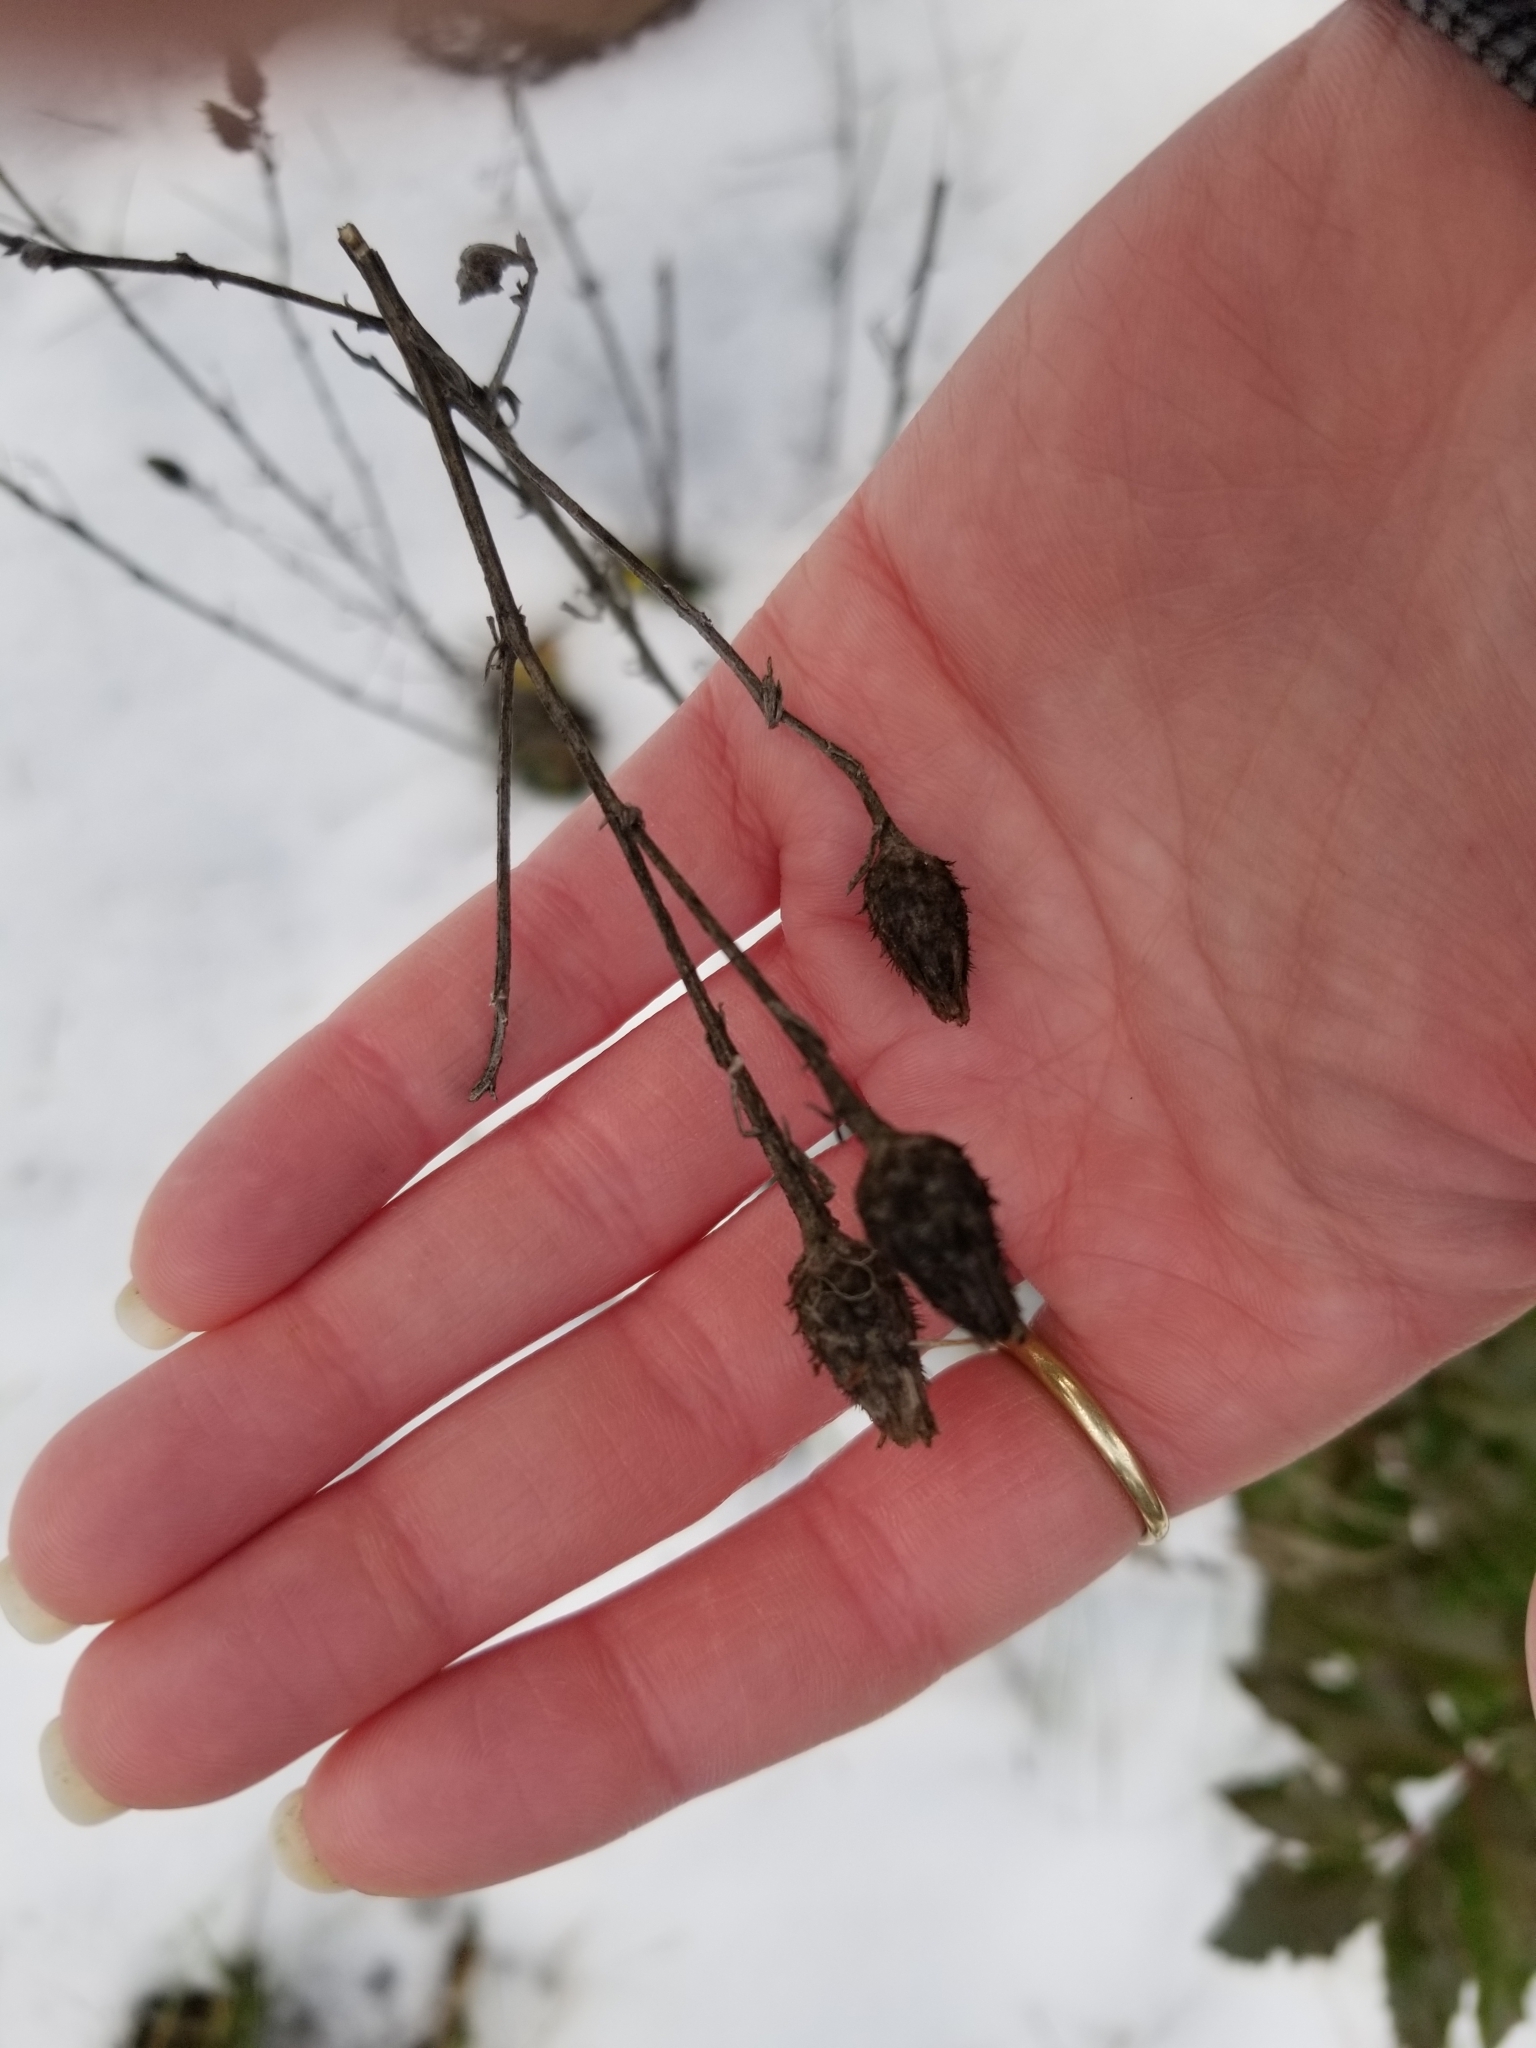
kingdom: Plantae
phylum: Tracheophyta
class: Magnoliopsida
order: Asterales
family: Asteraceae
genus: Centaurea
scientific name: Centaurea stoebe
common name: Spotted knapweed
